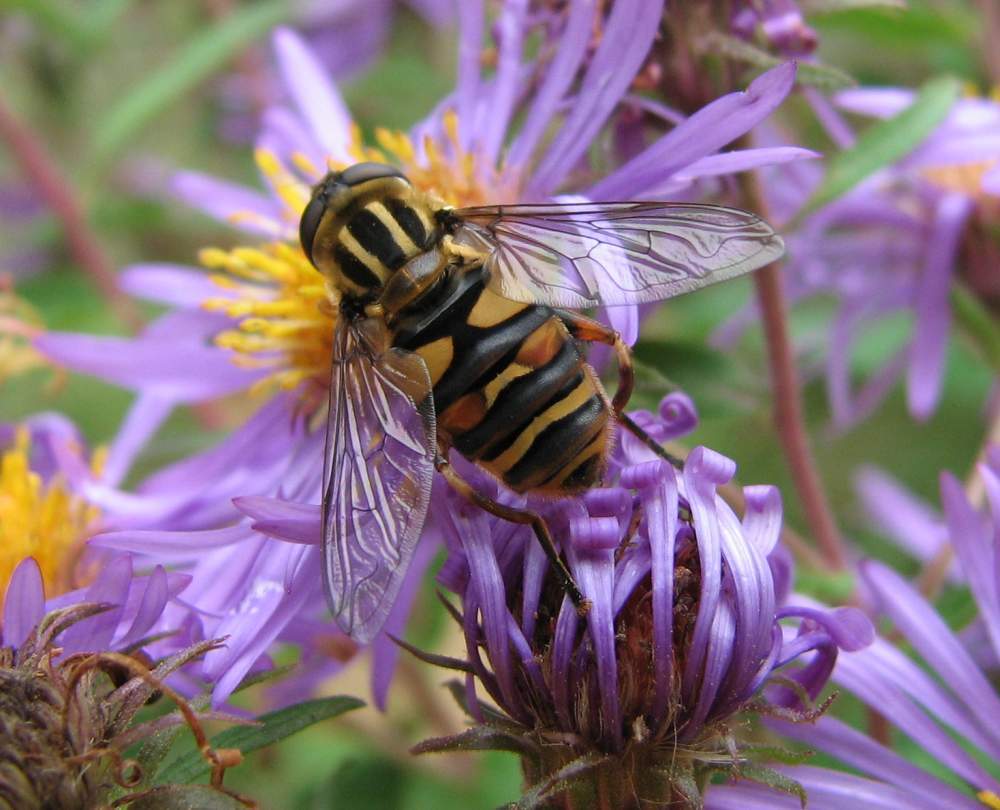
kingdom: Animalia
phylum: Arthropoda
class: Insecta
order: Diptera
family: Syrphidae
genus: Helophilus
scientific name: Helophilus fasciatus
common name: Narrow-headed marsh fly
